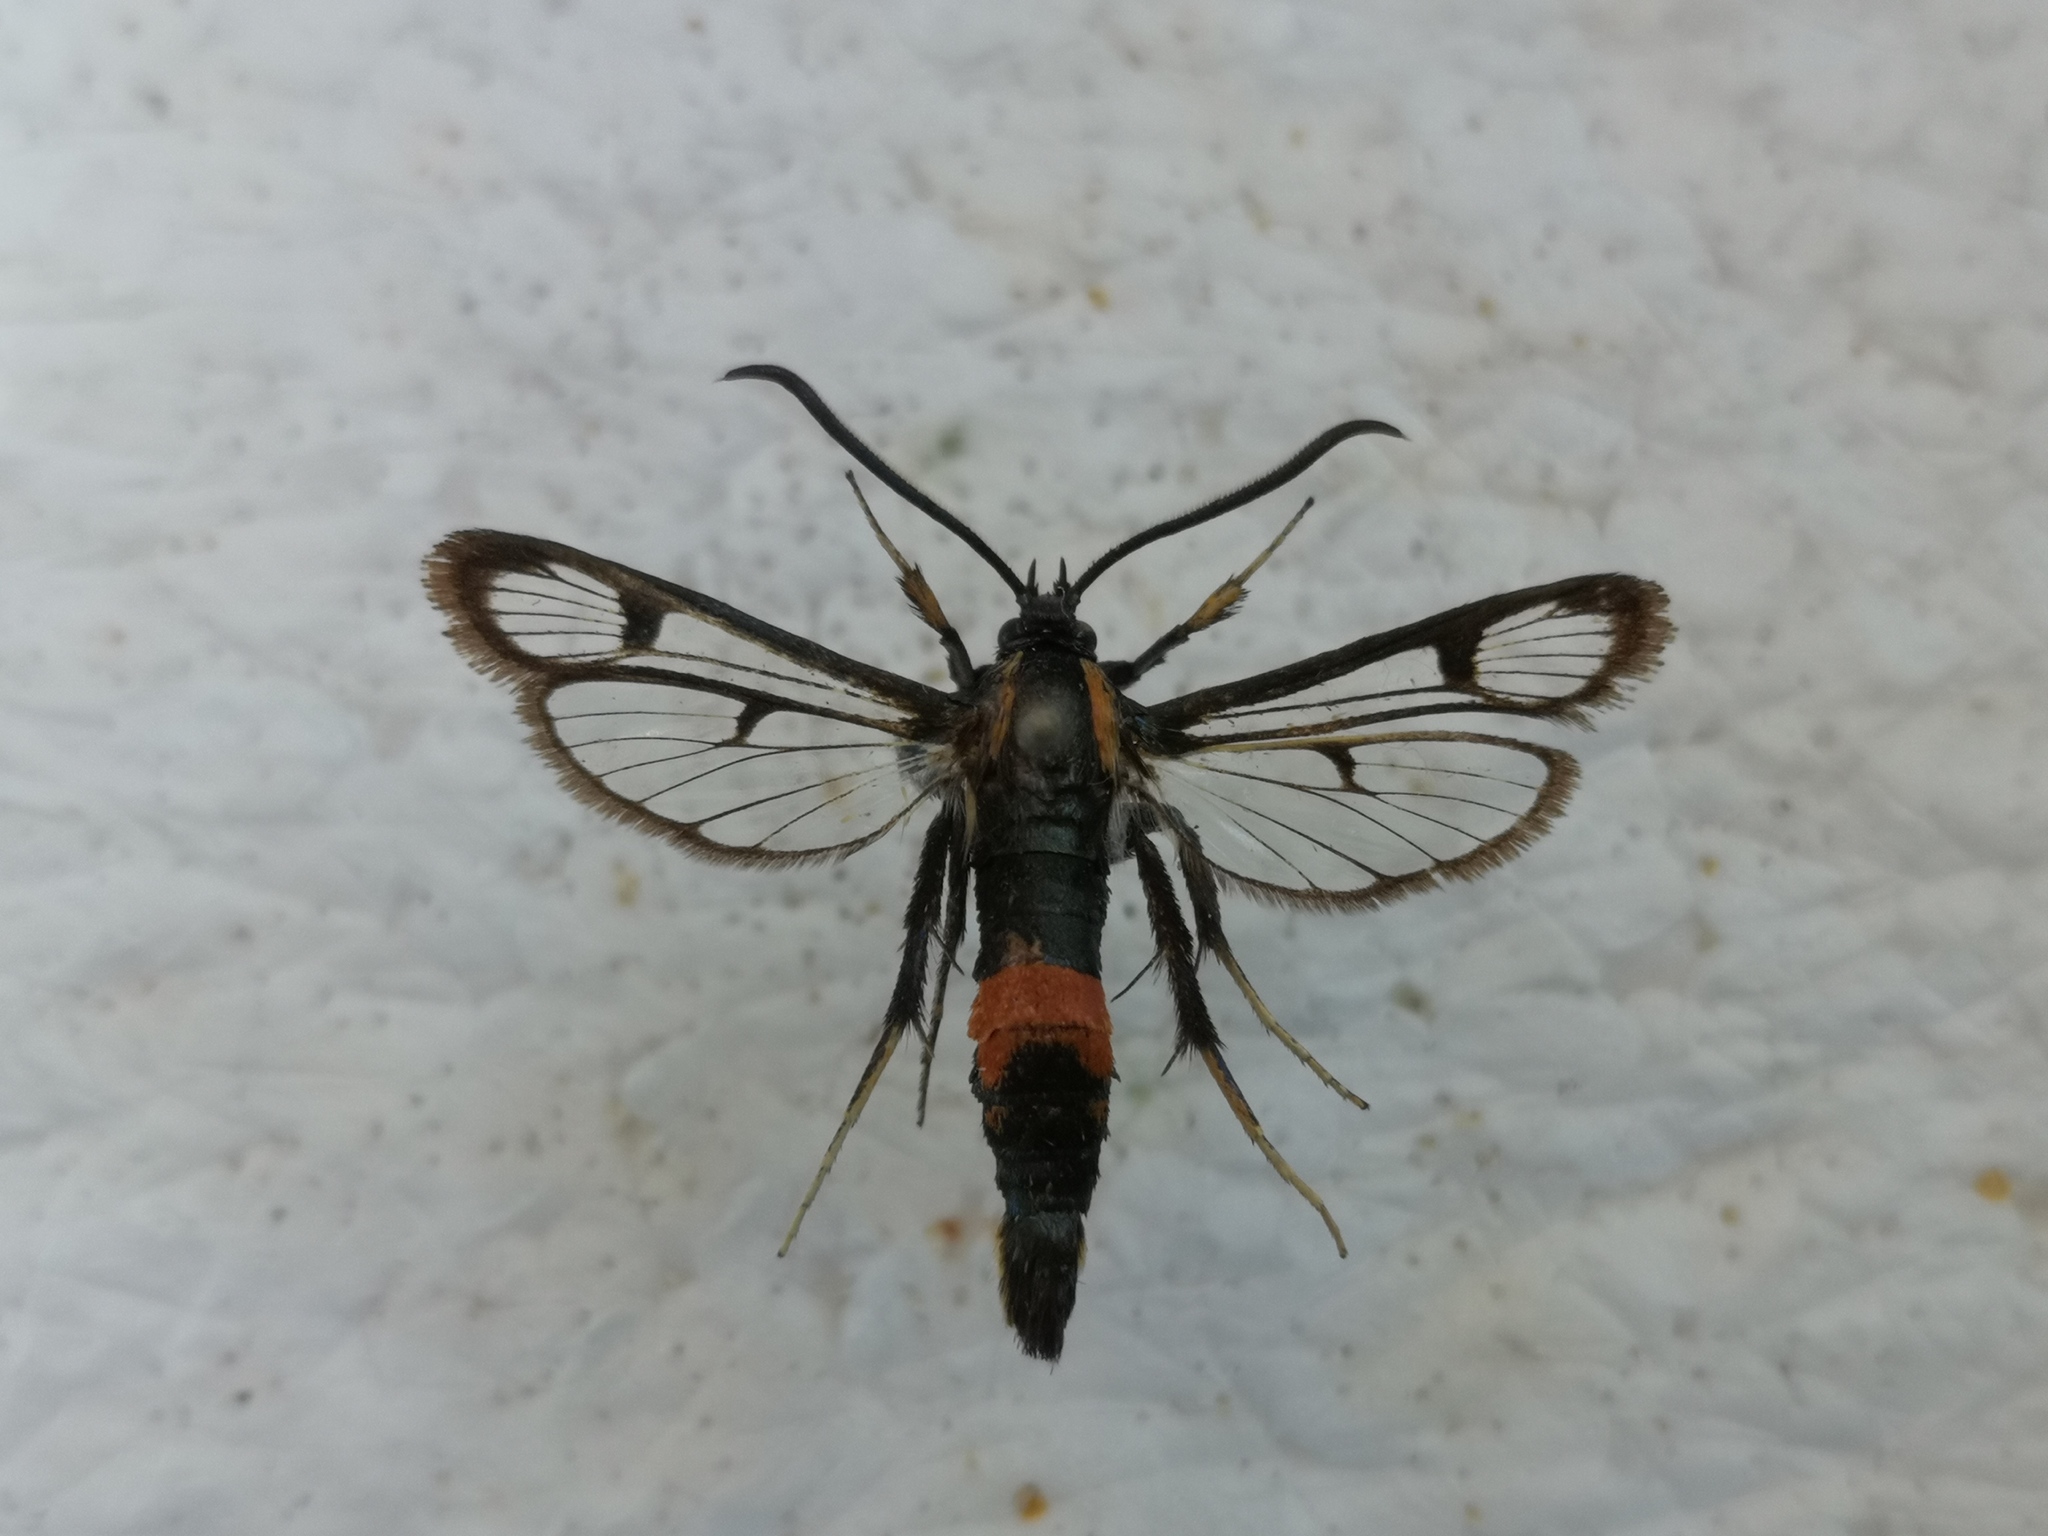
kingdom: Animalia
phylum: Arthropoda
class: Insecta
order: Lepidoptera
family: Sesiidae
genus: Synanthedon
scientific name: Synanthedon stomoxiformis
